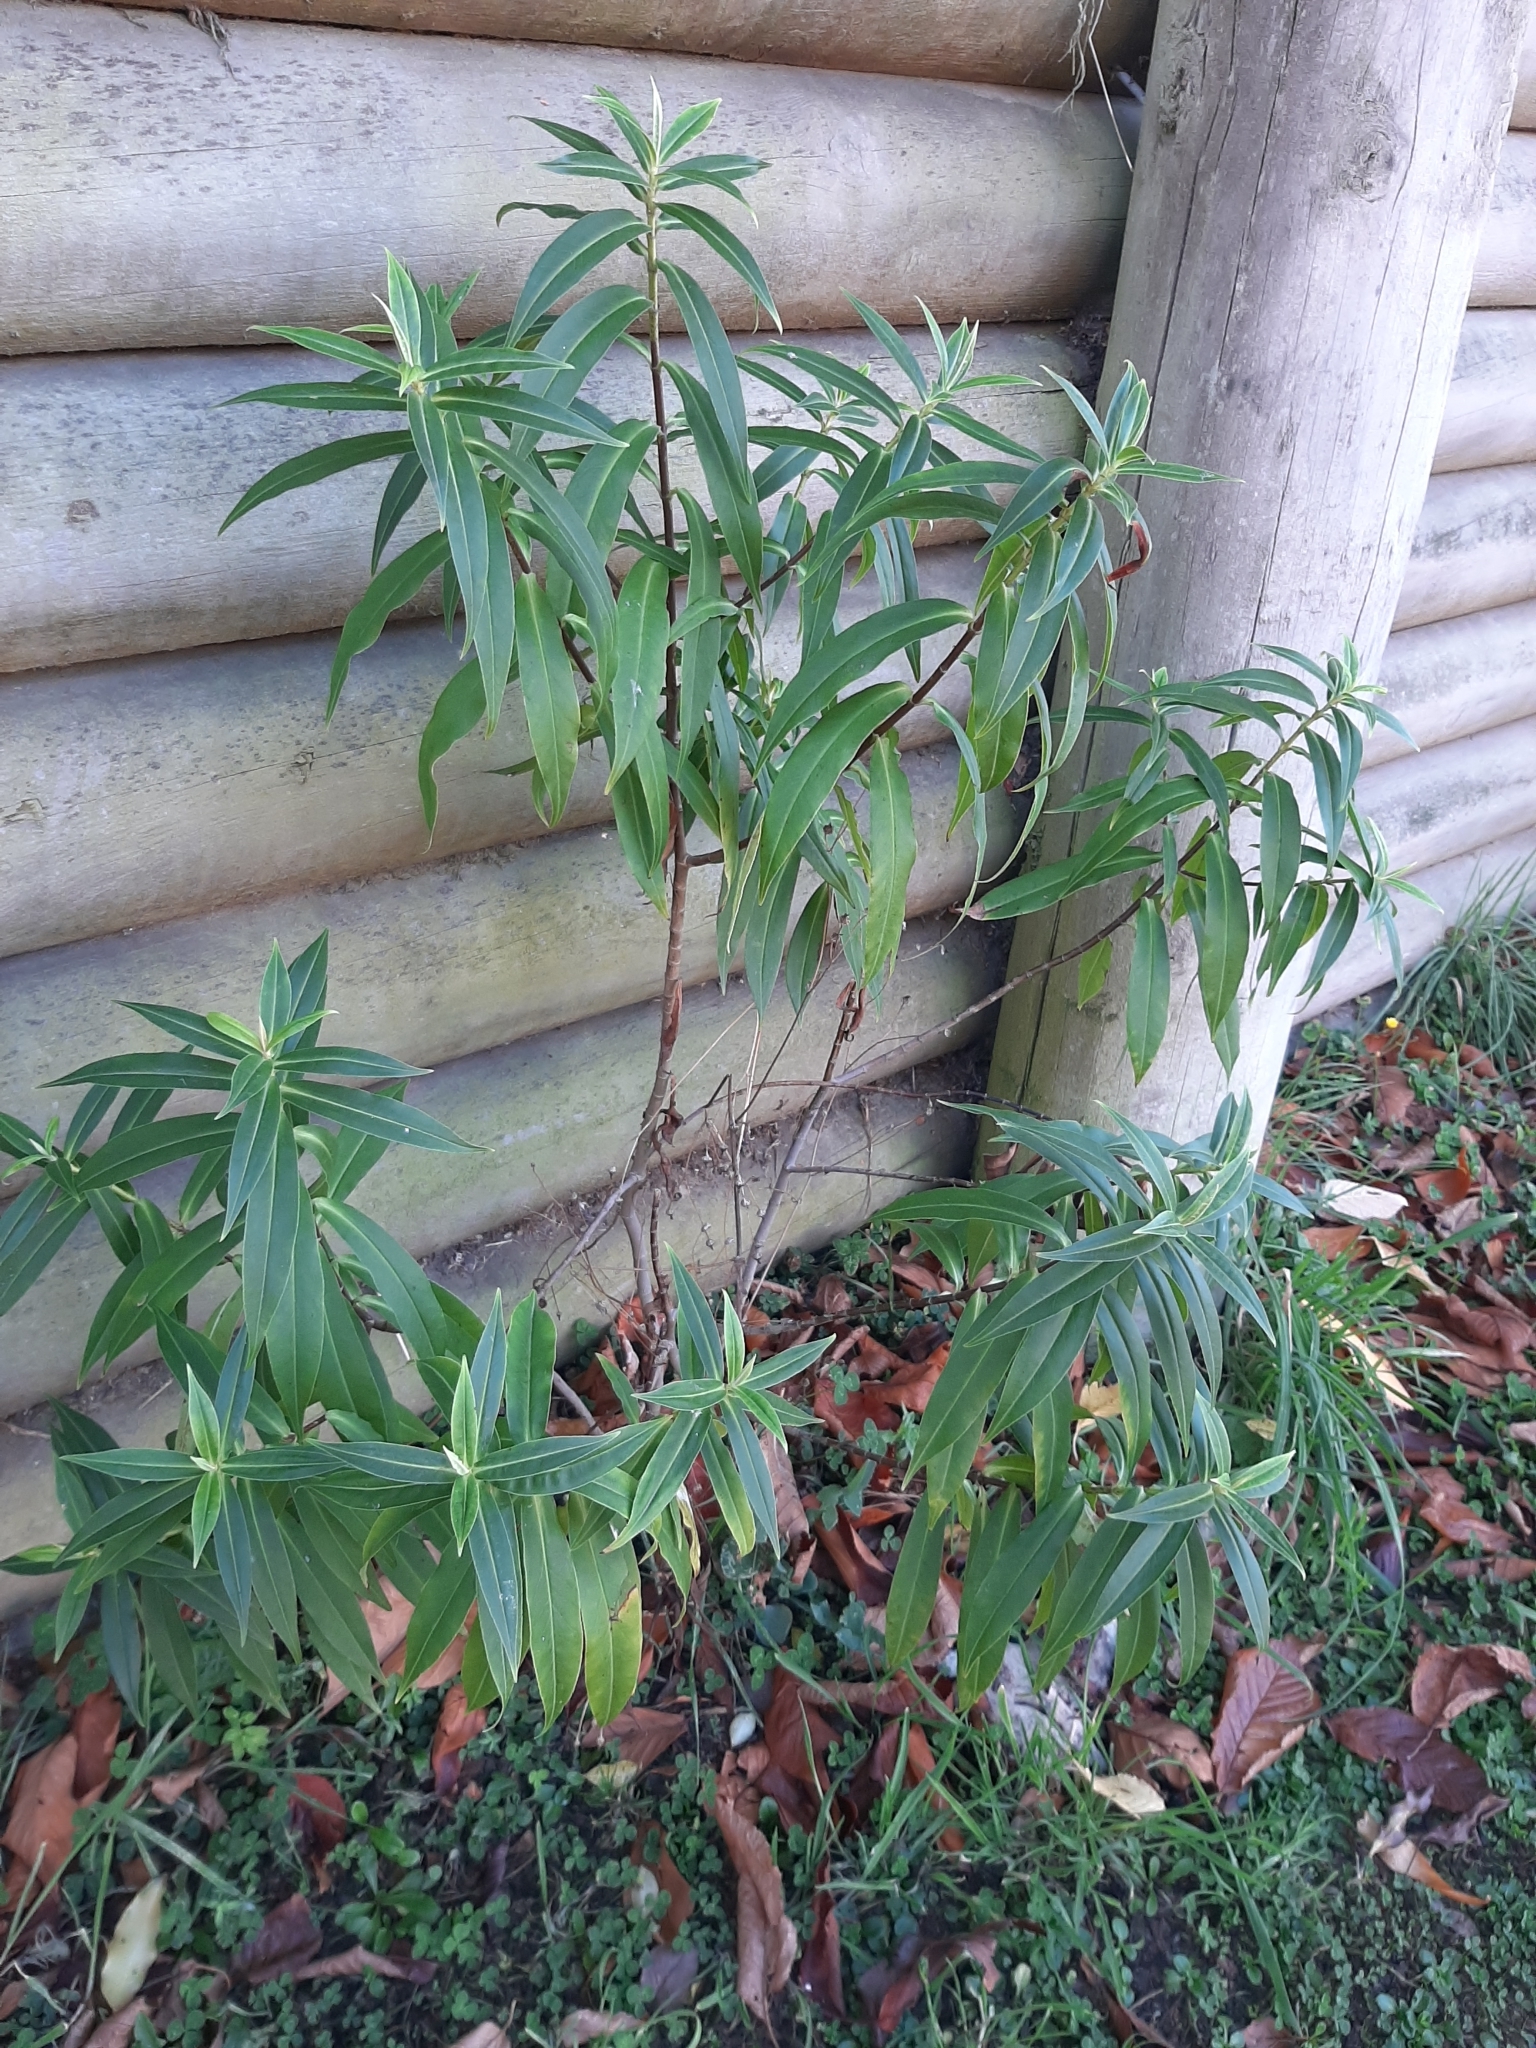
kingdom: Plantae
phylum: Tracheophyta
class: Magnoliopsida
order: Lamiales
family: Plantaginaceae
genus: Veronica
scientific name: Veronica salicifolia
